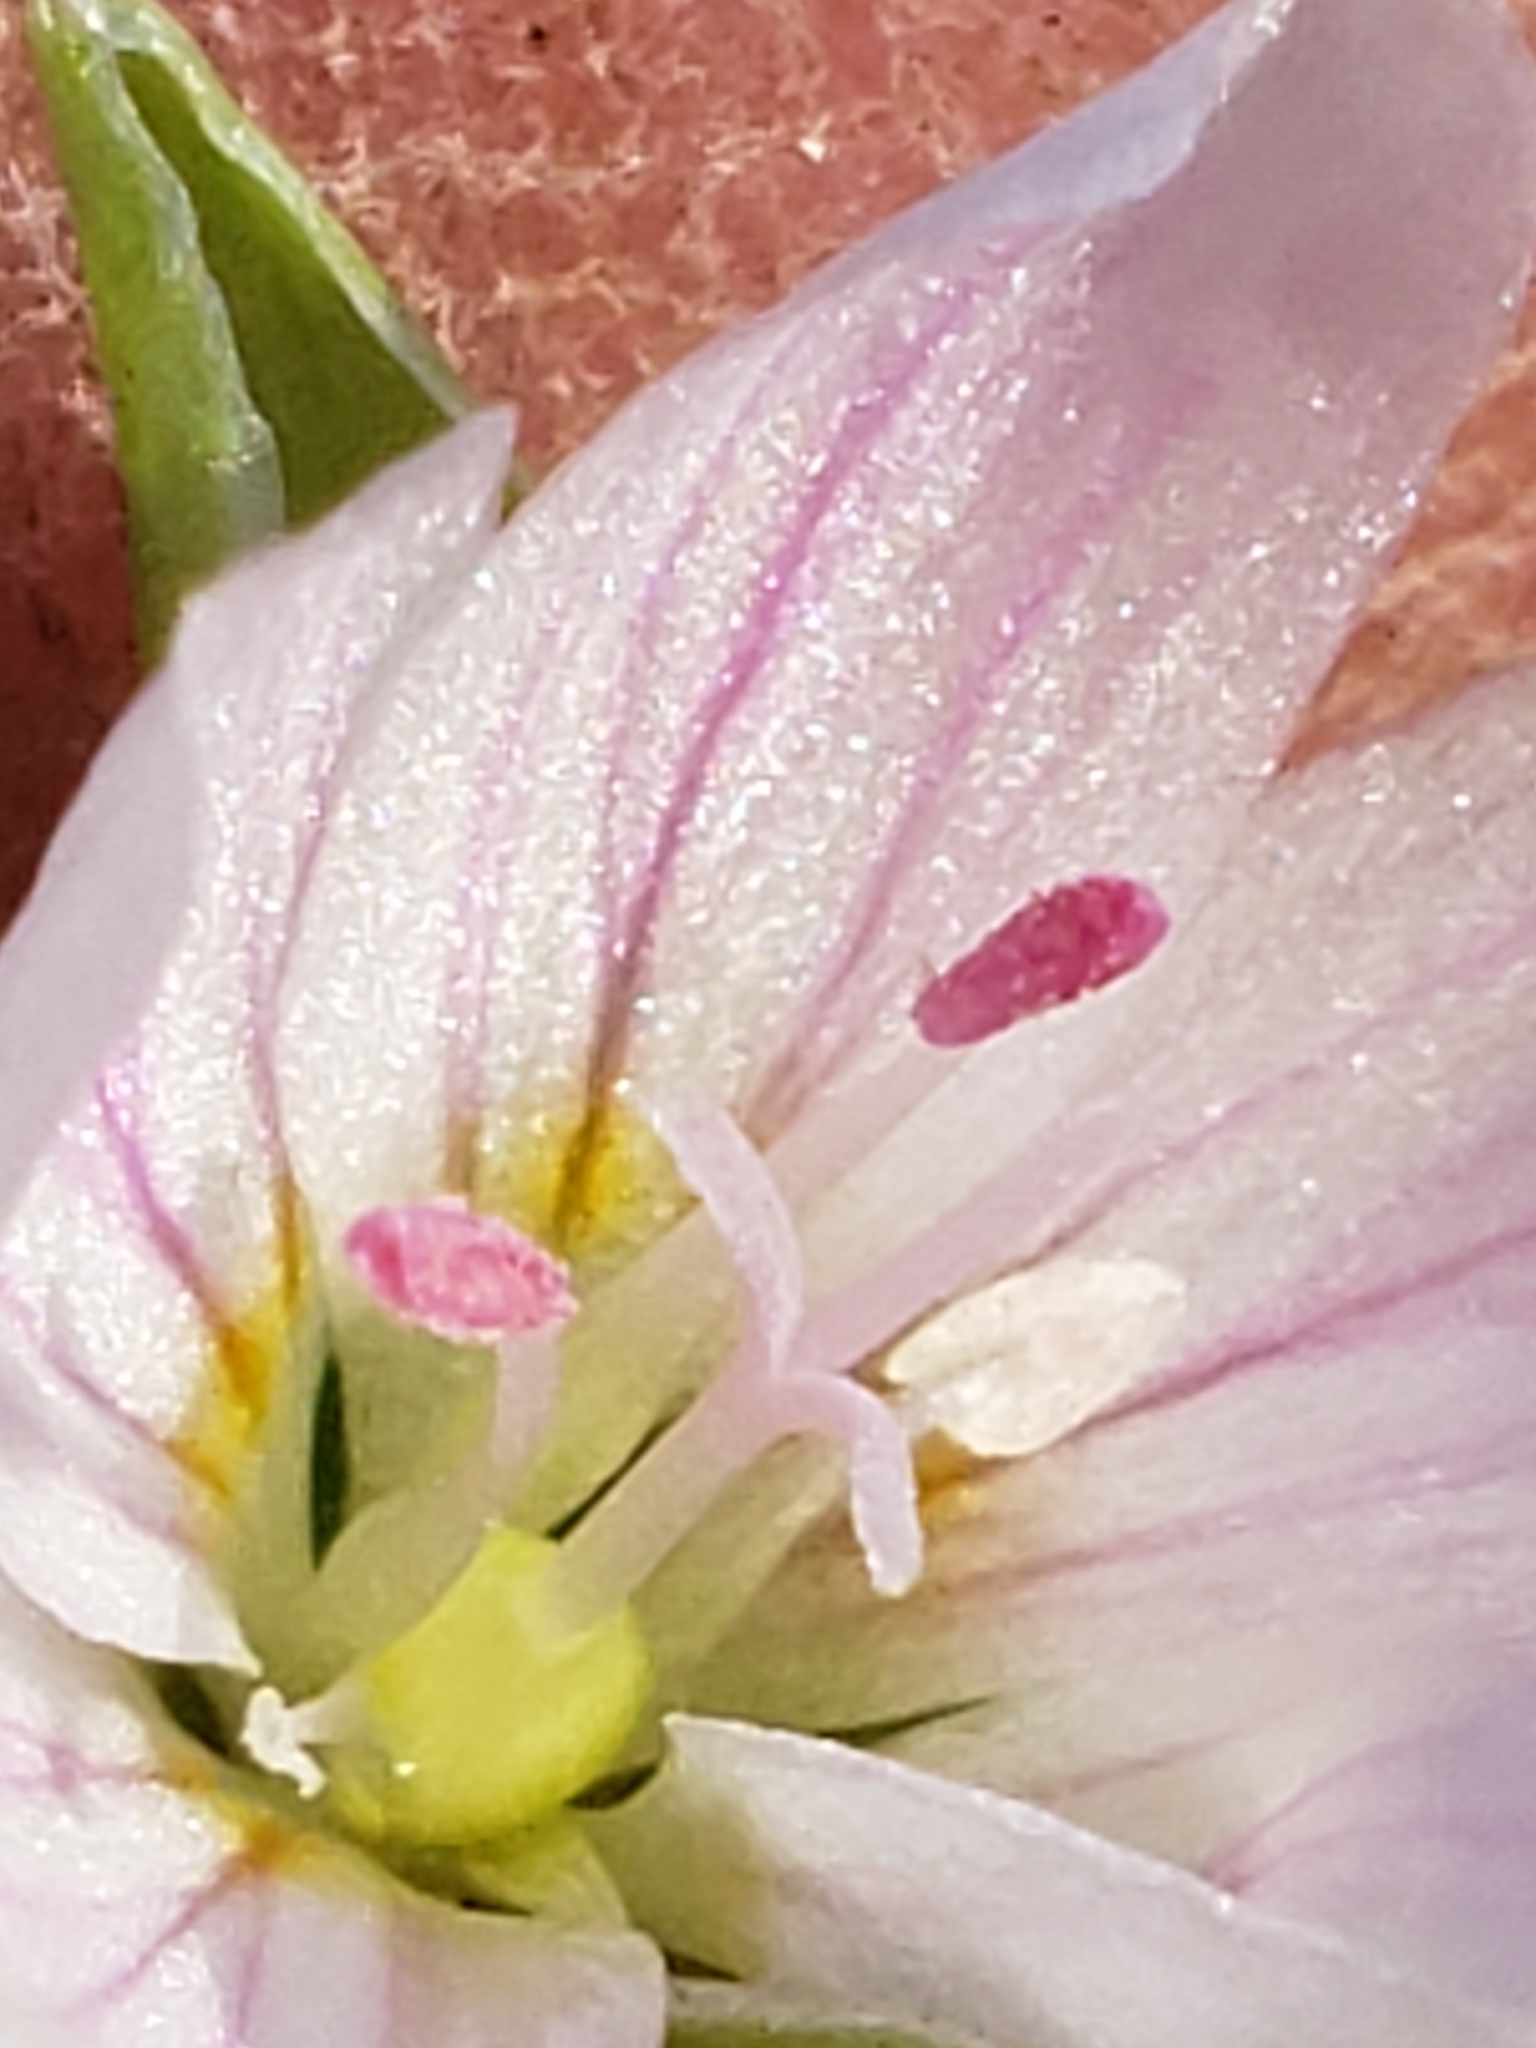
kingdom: Plantae
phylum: Tracheophyta
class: Magnoliopsida
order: Caryophyllales
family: Montiaceae
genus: Claytonia
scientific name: Claytonia virginica
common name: Virginia springbeauty
